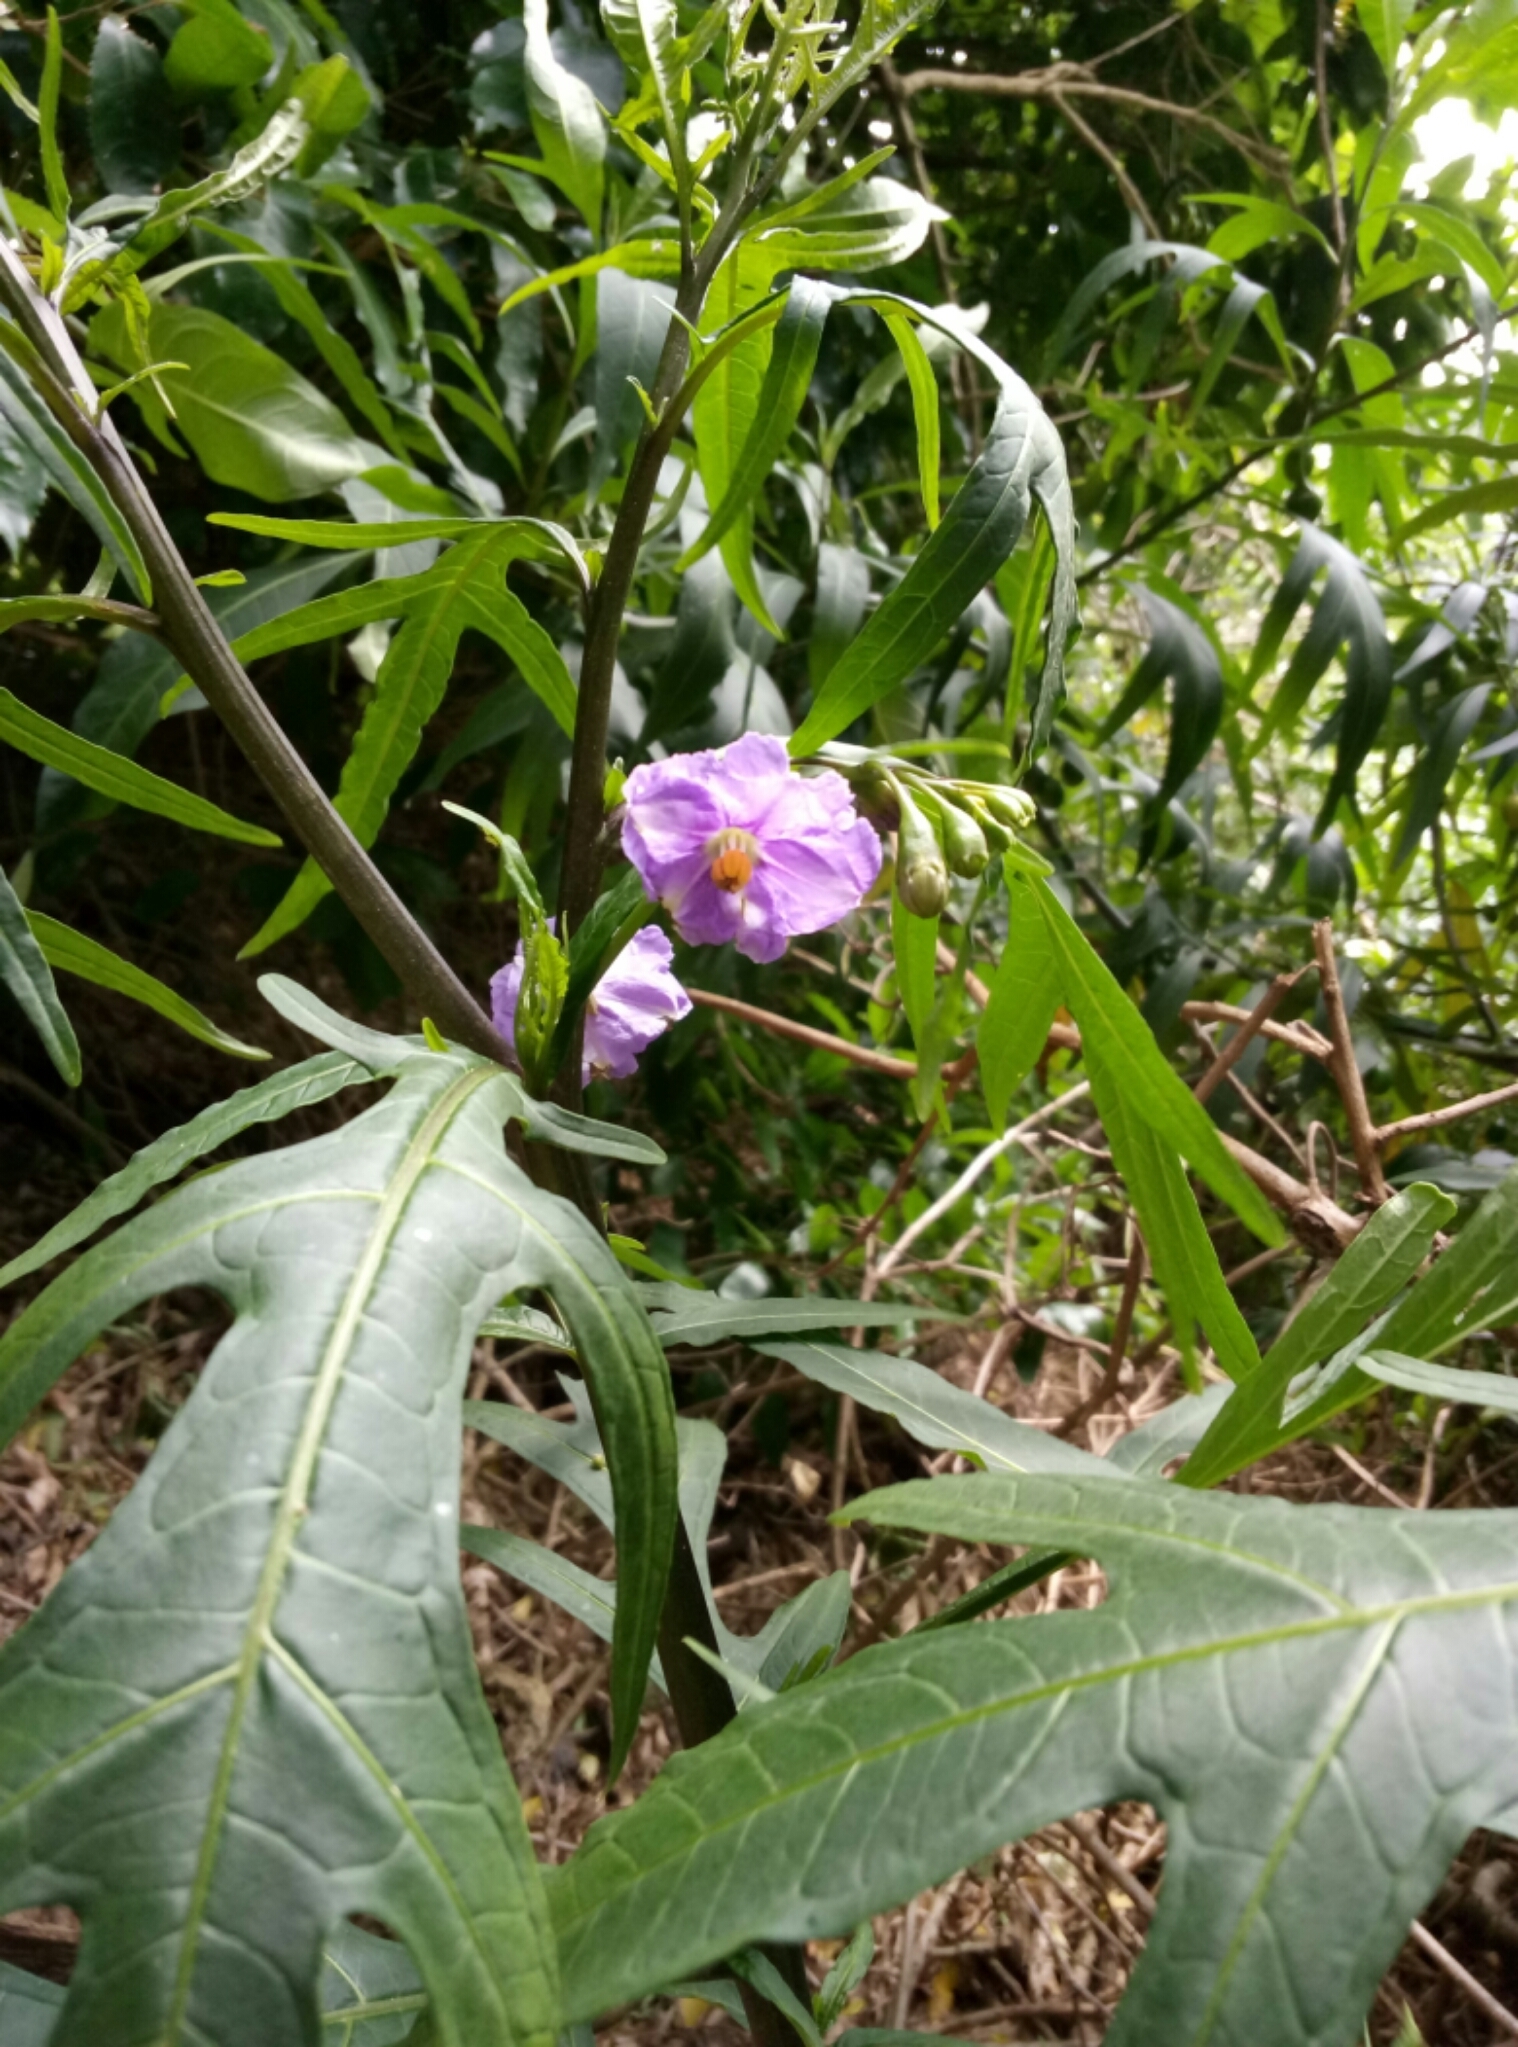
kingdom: Plantae
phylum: Tracheophyta
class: Magnoliopsida
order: Solanales
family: Solanaceae
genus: Solanum
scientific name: Solanum laciniatum
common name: Kangaroo-apple
